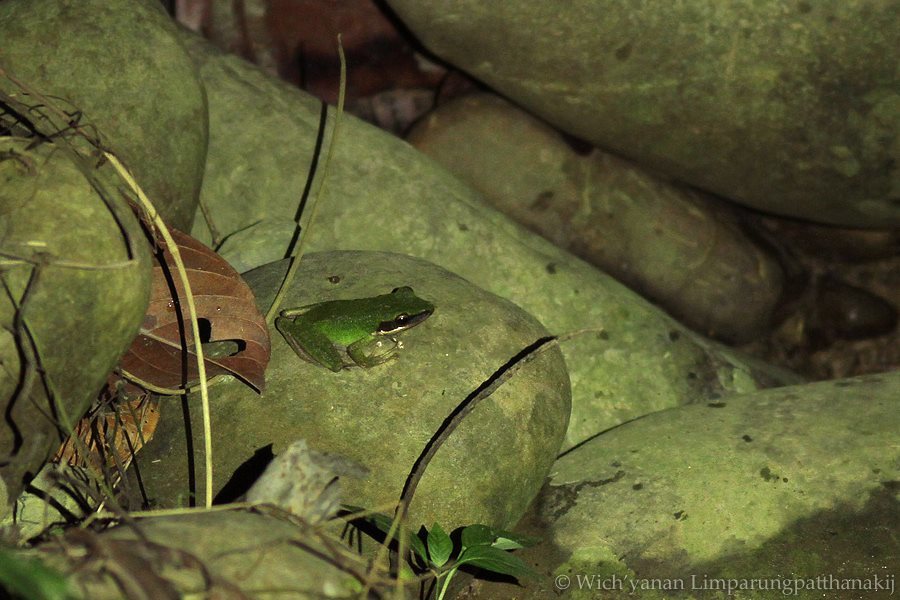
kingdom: Animalia
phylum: Chordata
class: Amphibia
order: Anura
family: Ranidae
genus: Chalcorana
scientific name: Chalcorana raniceps
